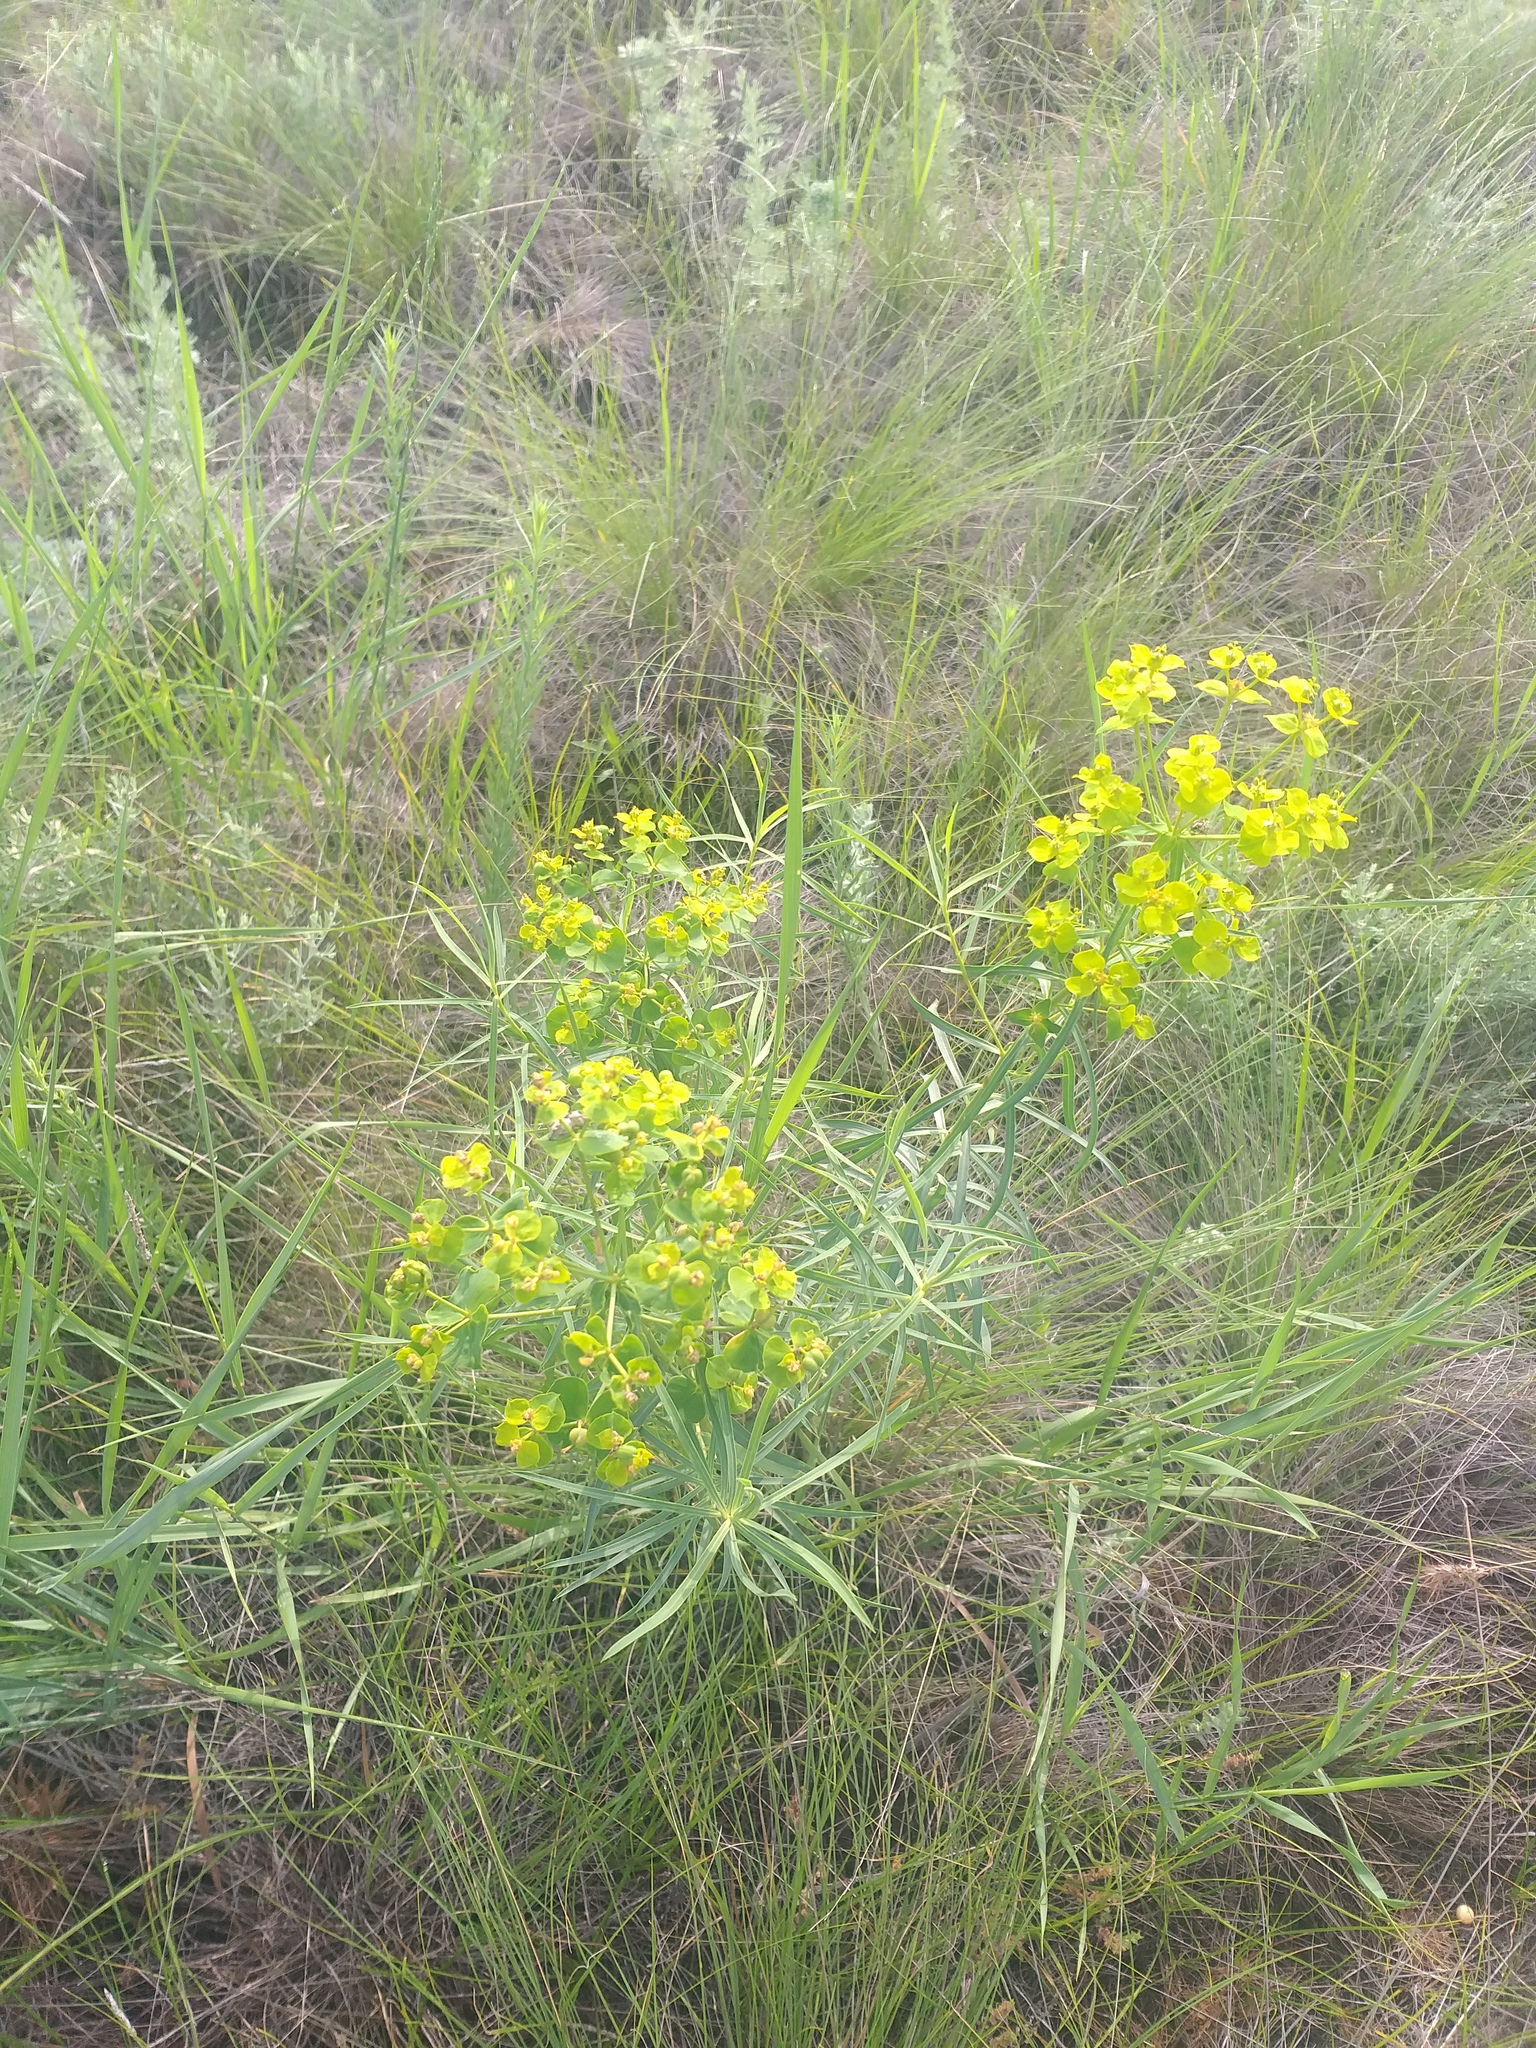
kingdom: Plantae
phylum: Tracheophyta
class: Magnoliopsida
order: Malpighiales
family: Euphorbiaceae
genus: Euphorbia
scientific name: Euphorbia virgata
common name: Leafy spurge
